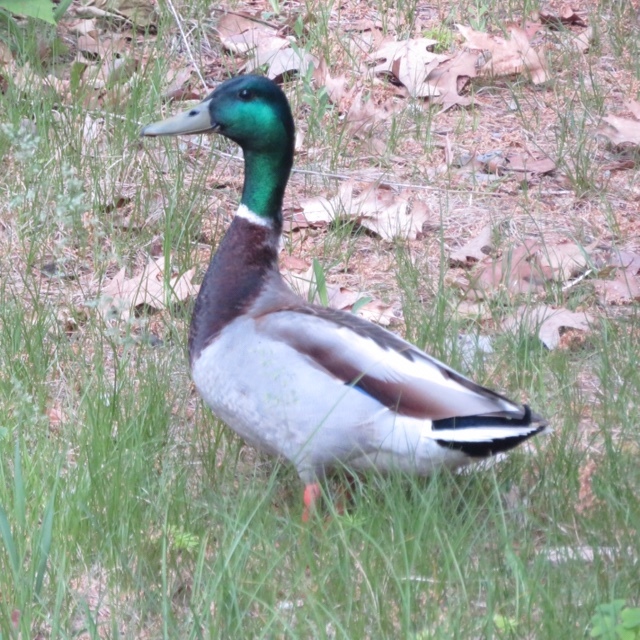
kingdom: Animalia
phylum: Chordata
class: Aves
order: Anseriformes
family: Anatidae
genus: Anas
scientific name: Anas platyrhynchos
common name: Mallard
